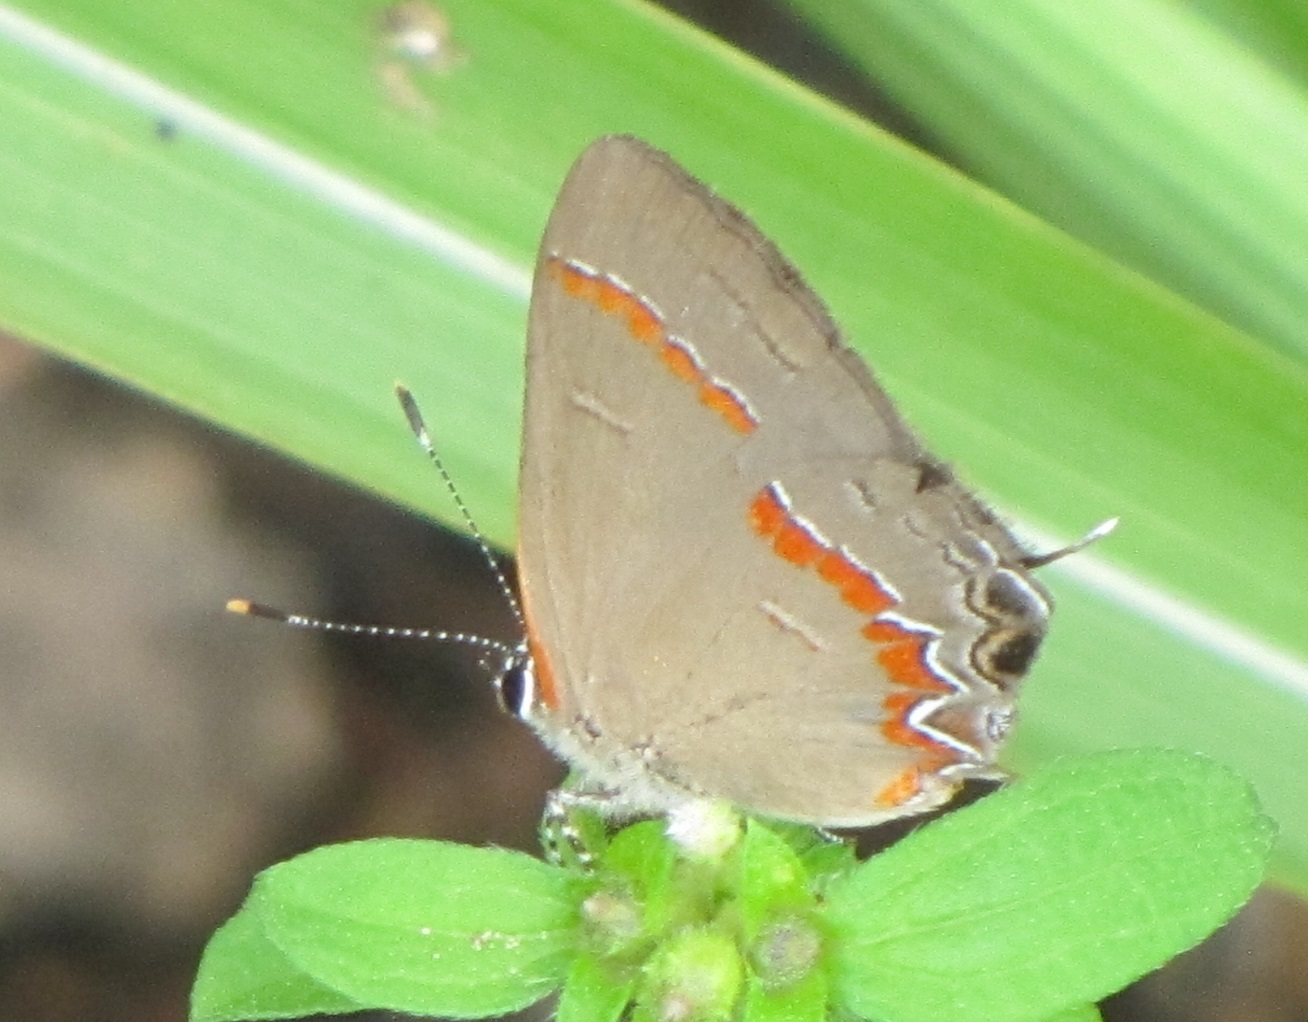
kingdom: Animalia
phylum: Arthropoda
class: Insecta
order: Lepidoptera
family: Lycaenidae
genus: Calycopis
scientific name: Calycopis cecrops
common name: Red-banded hairstreak
